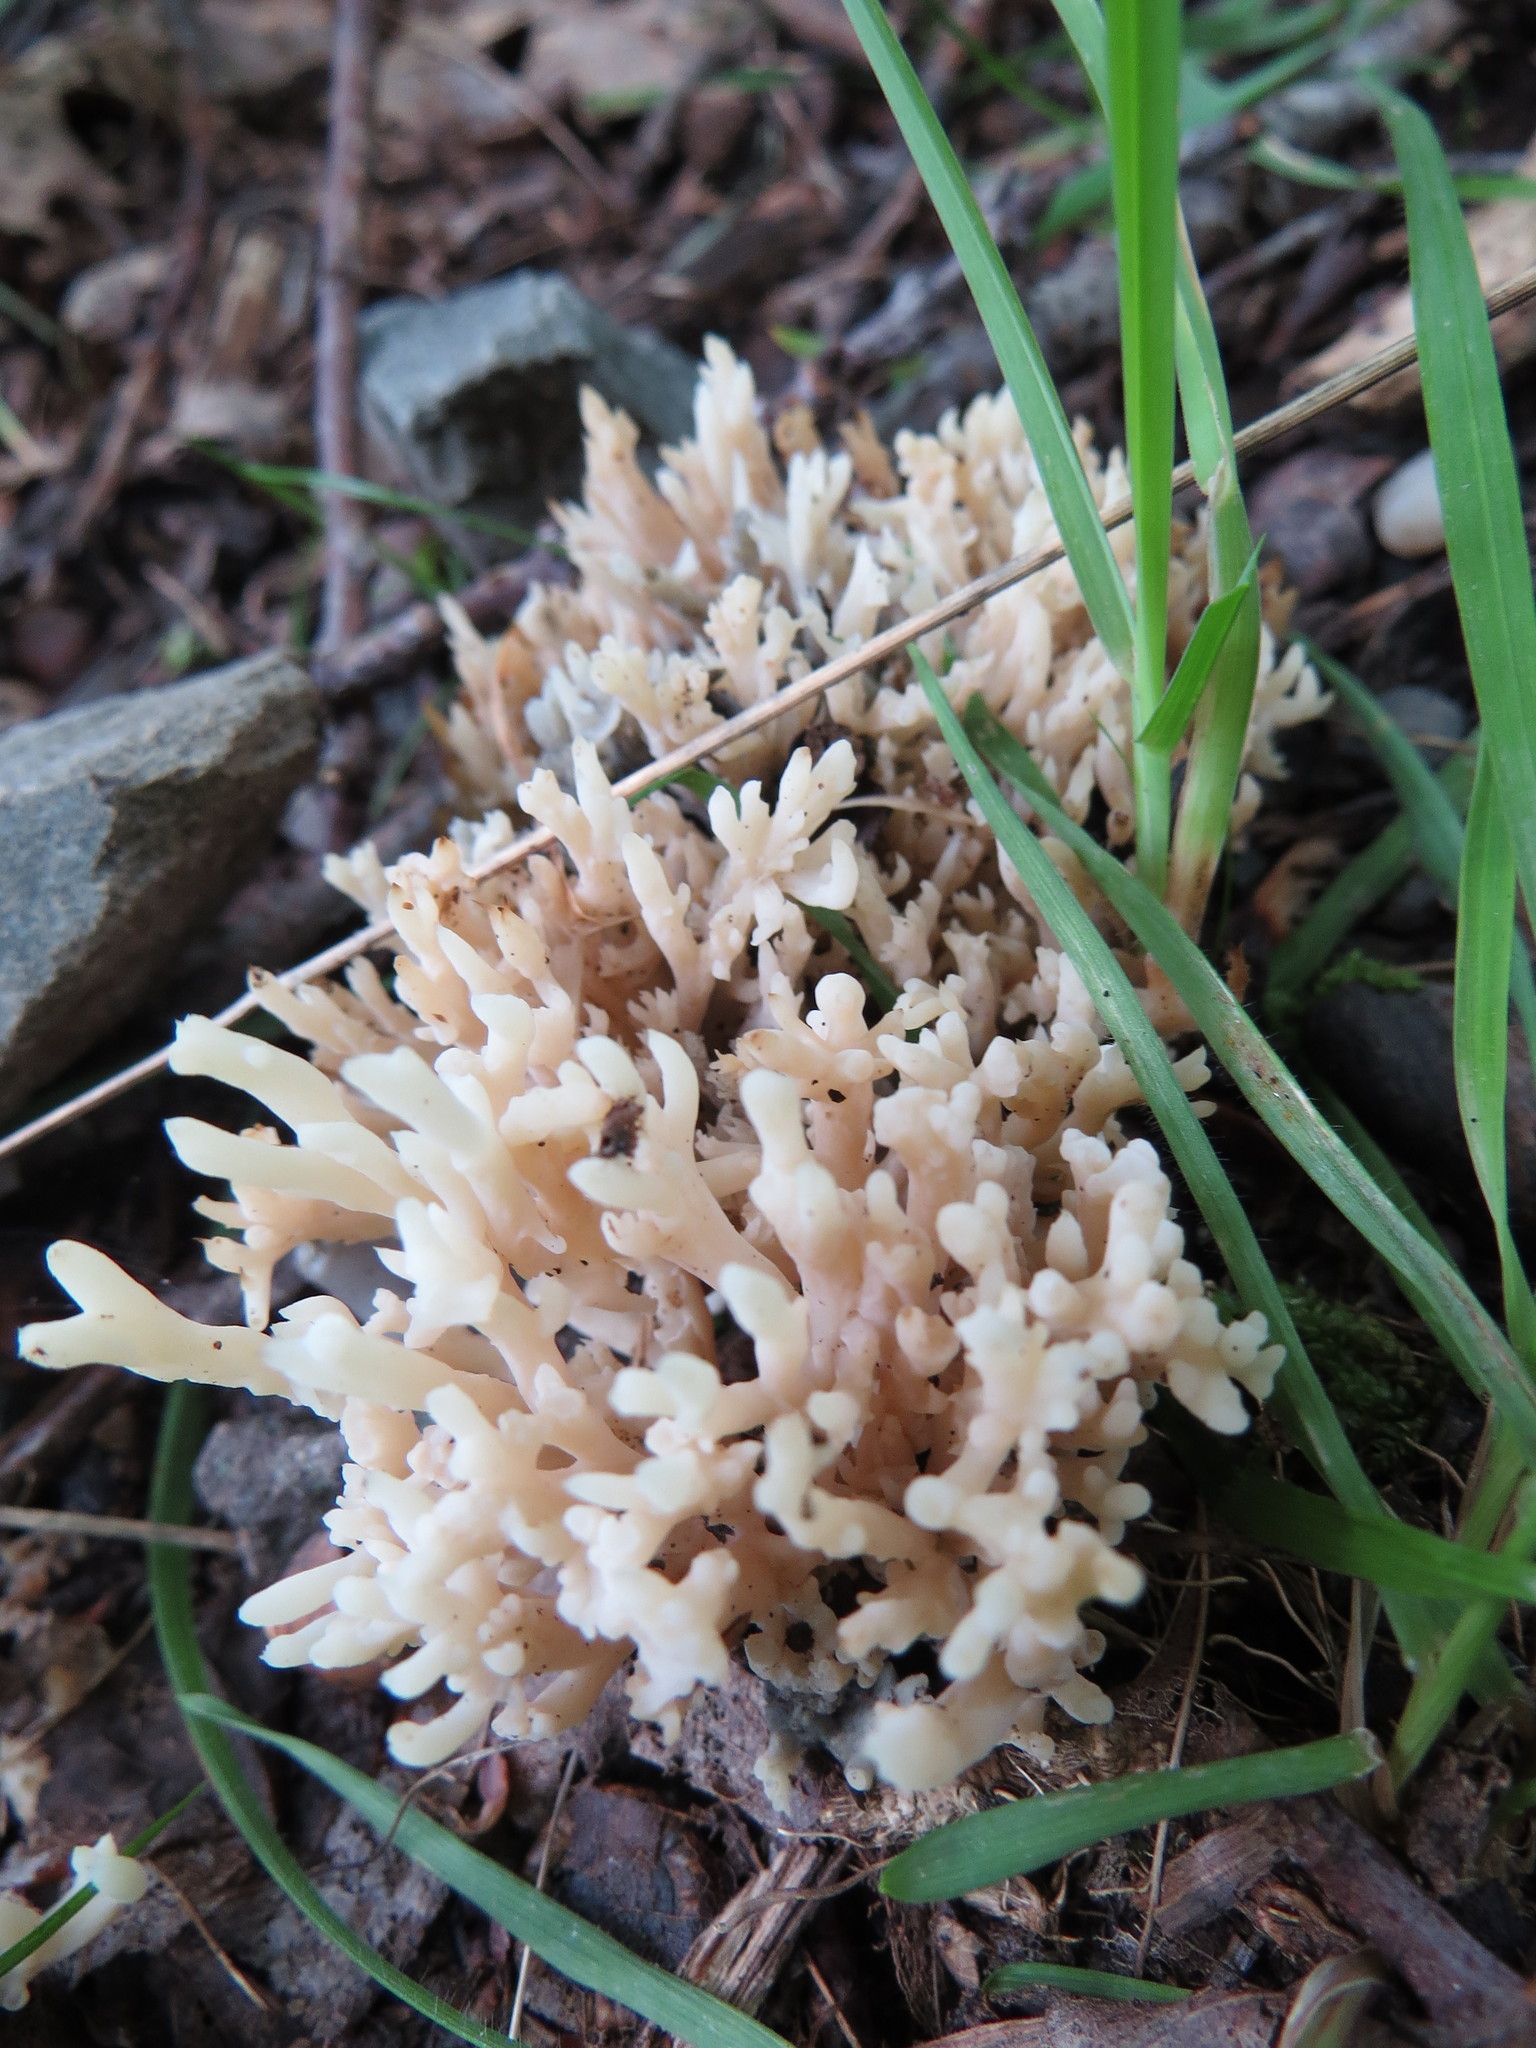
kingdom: Fungi
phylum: Basidiomycota
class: Agaricomycetes
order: Cantharellales
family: Hydnaceae
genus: Clavulina
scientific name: Clavulina coralloides
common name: Crested coral
